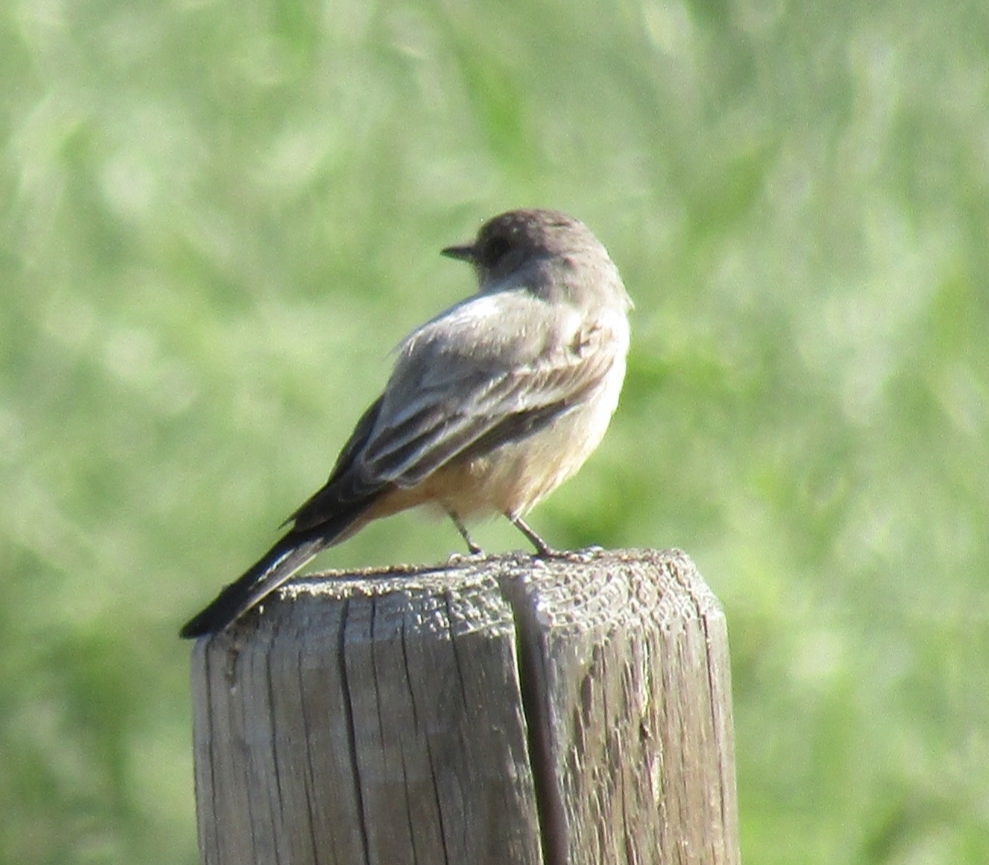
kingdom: Animalia
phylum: Chordata
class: Aves
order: Passeriformes
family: Tyrannidae
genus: Sayornis
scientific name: Sayornis saya
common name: Say's phoebe
